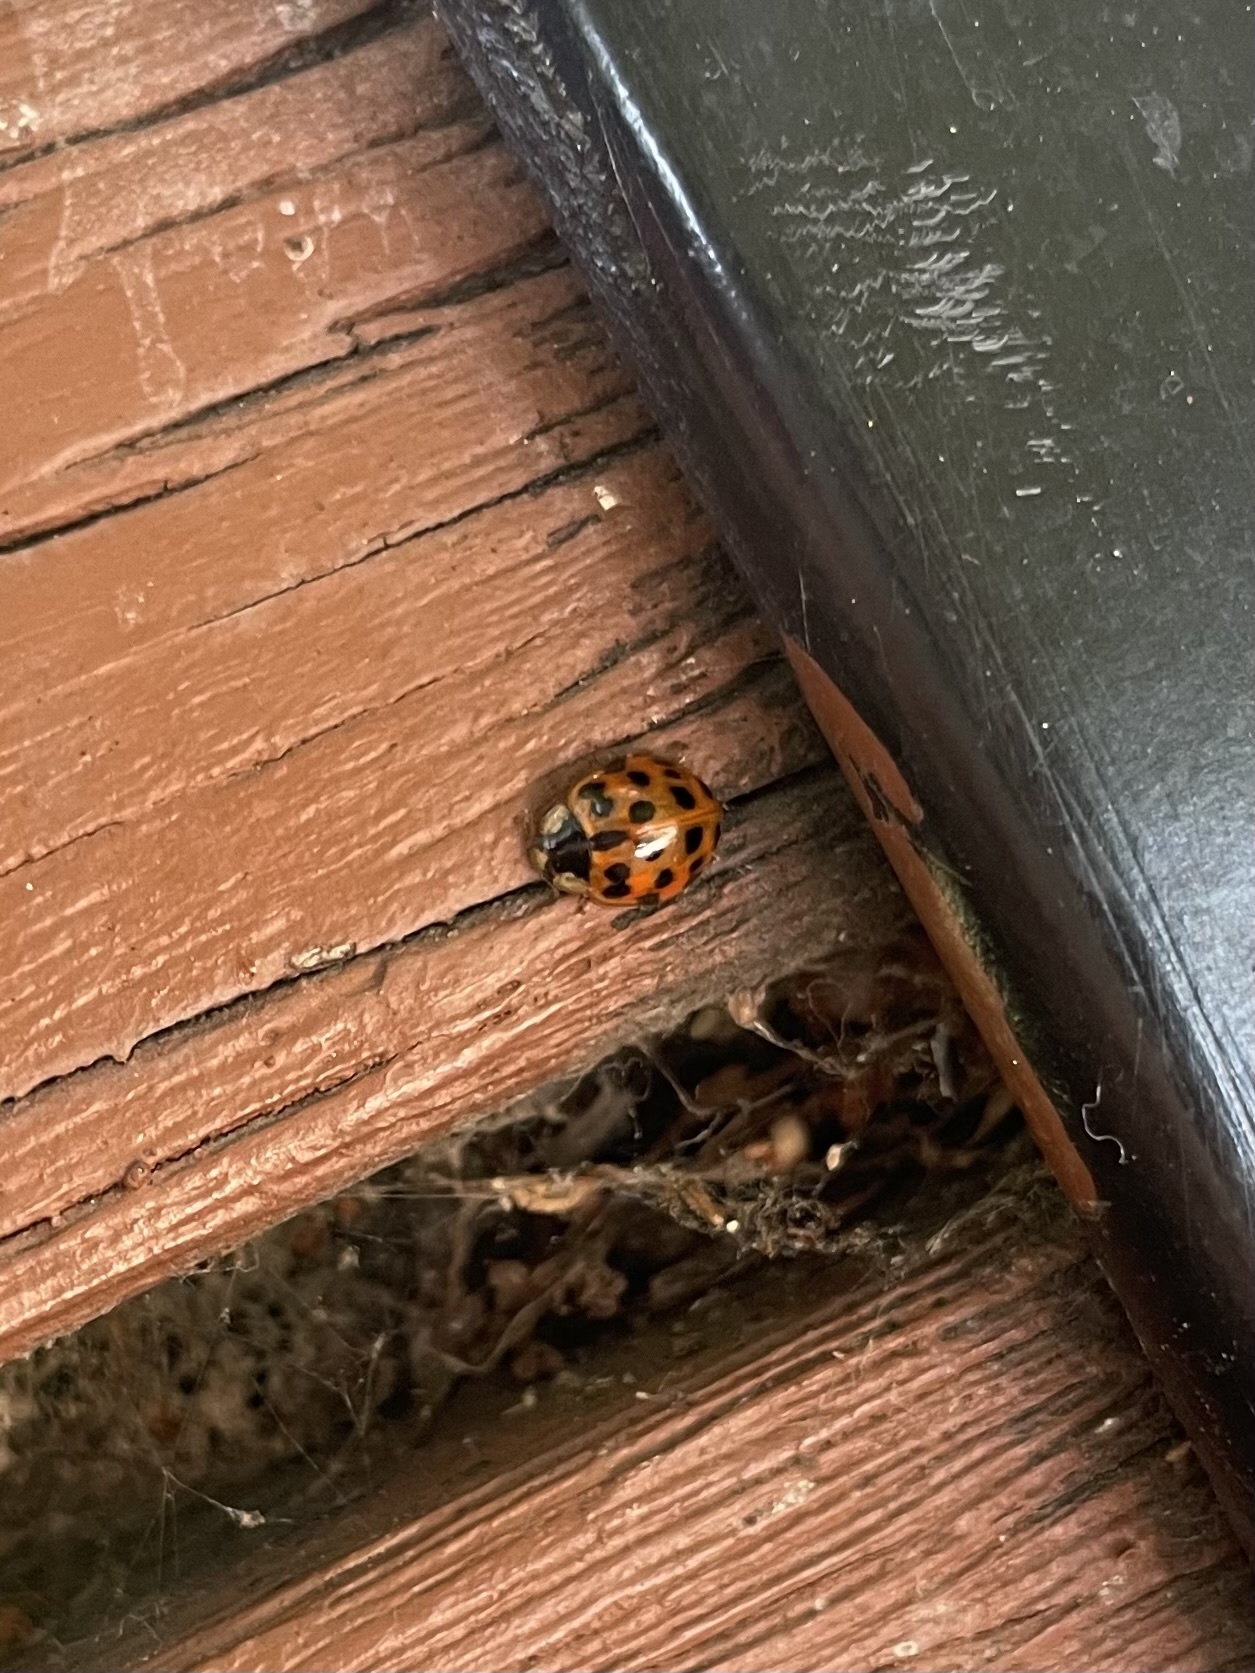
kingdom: Animalia
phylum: Arthropoda
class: Insecta
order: Coleoptera
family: Coccinellidae
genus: Harmonia
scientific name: Harmonia axyridis
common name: Harlequin ladybird
